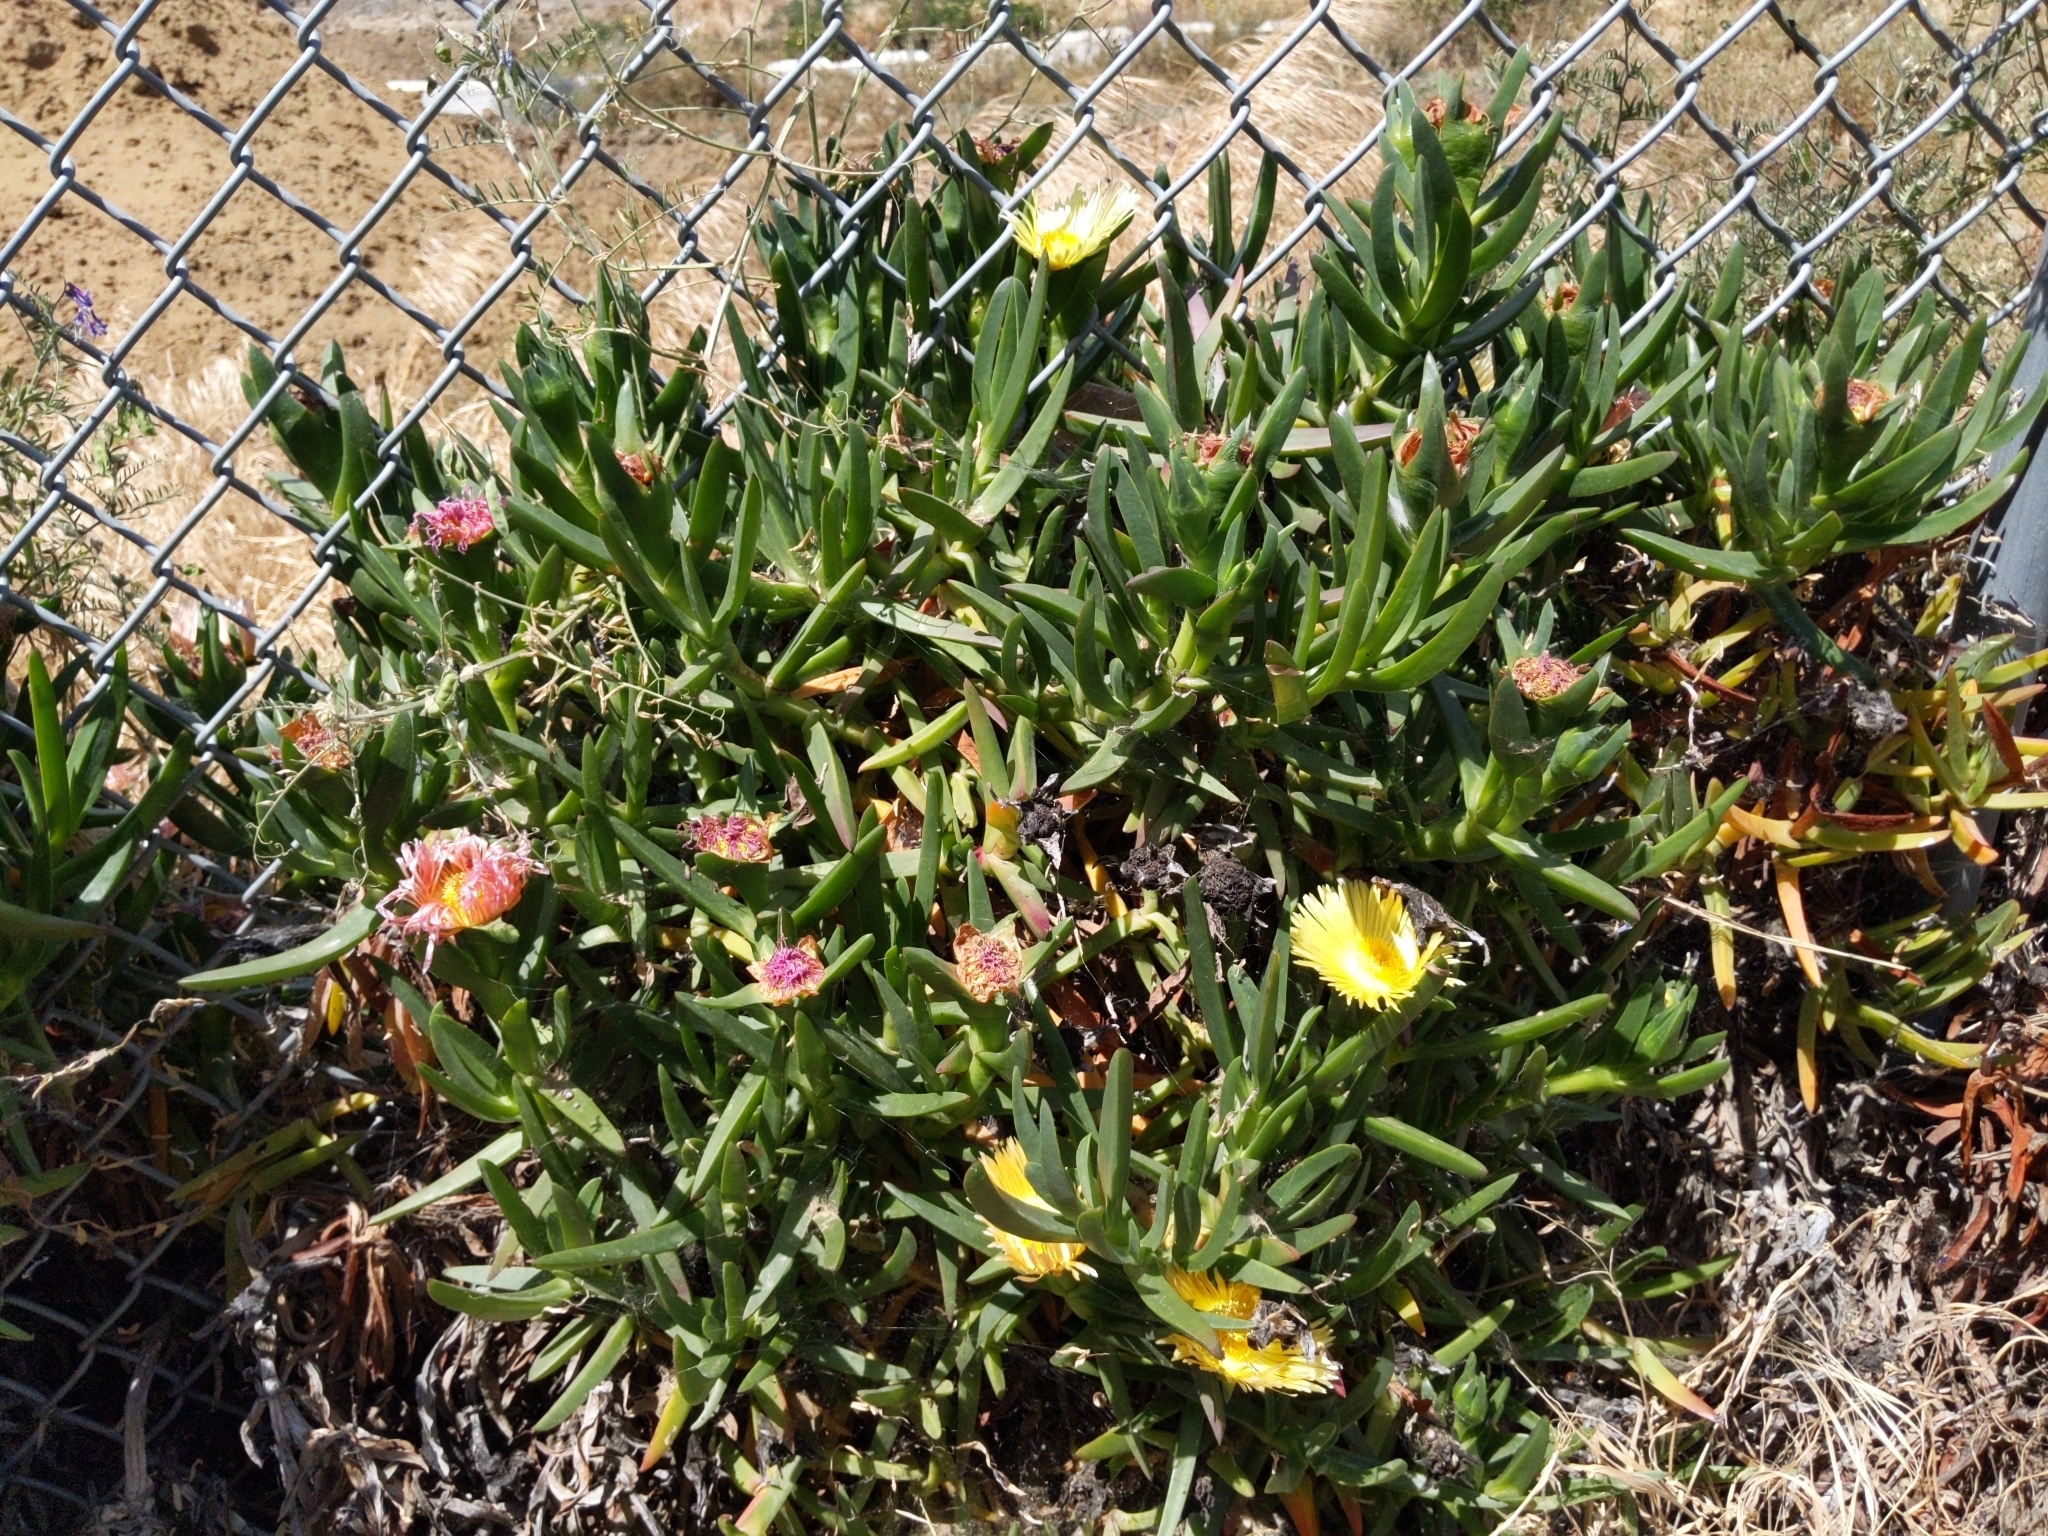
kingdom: Plantae
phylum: Tracheophyta
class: Magnoliopsida
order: Caryophyllales
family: Aizoaceae
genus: Carpobrotus
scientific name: Carpobrotus edulis
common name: Hottentot-fig
